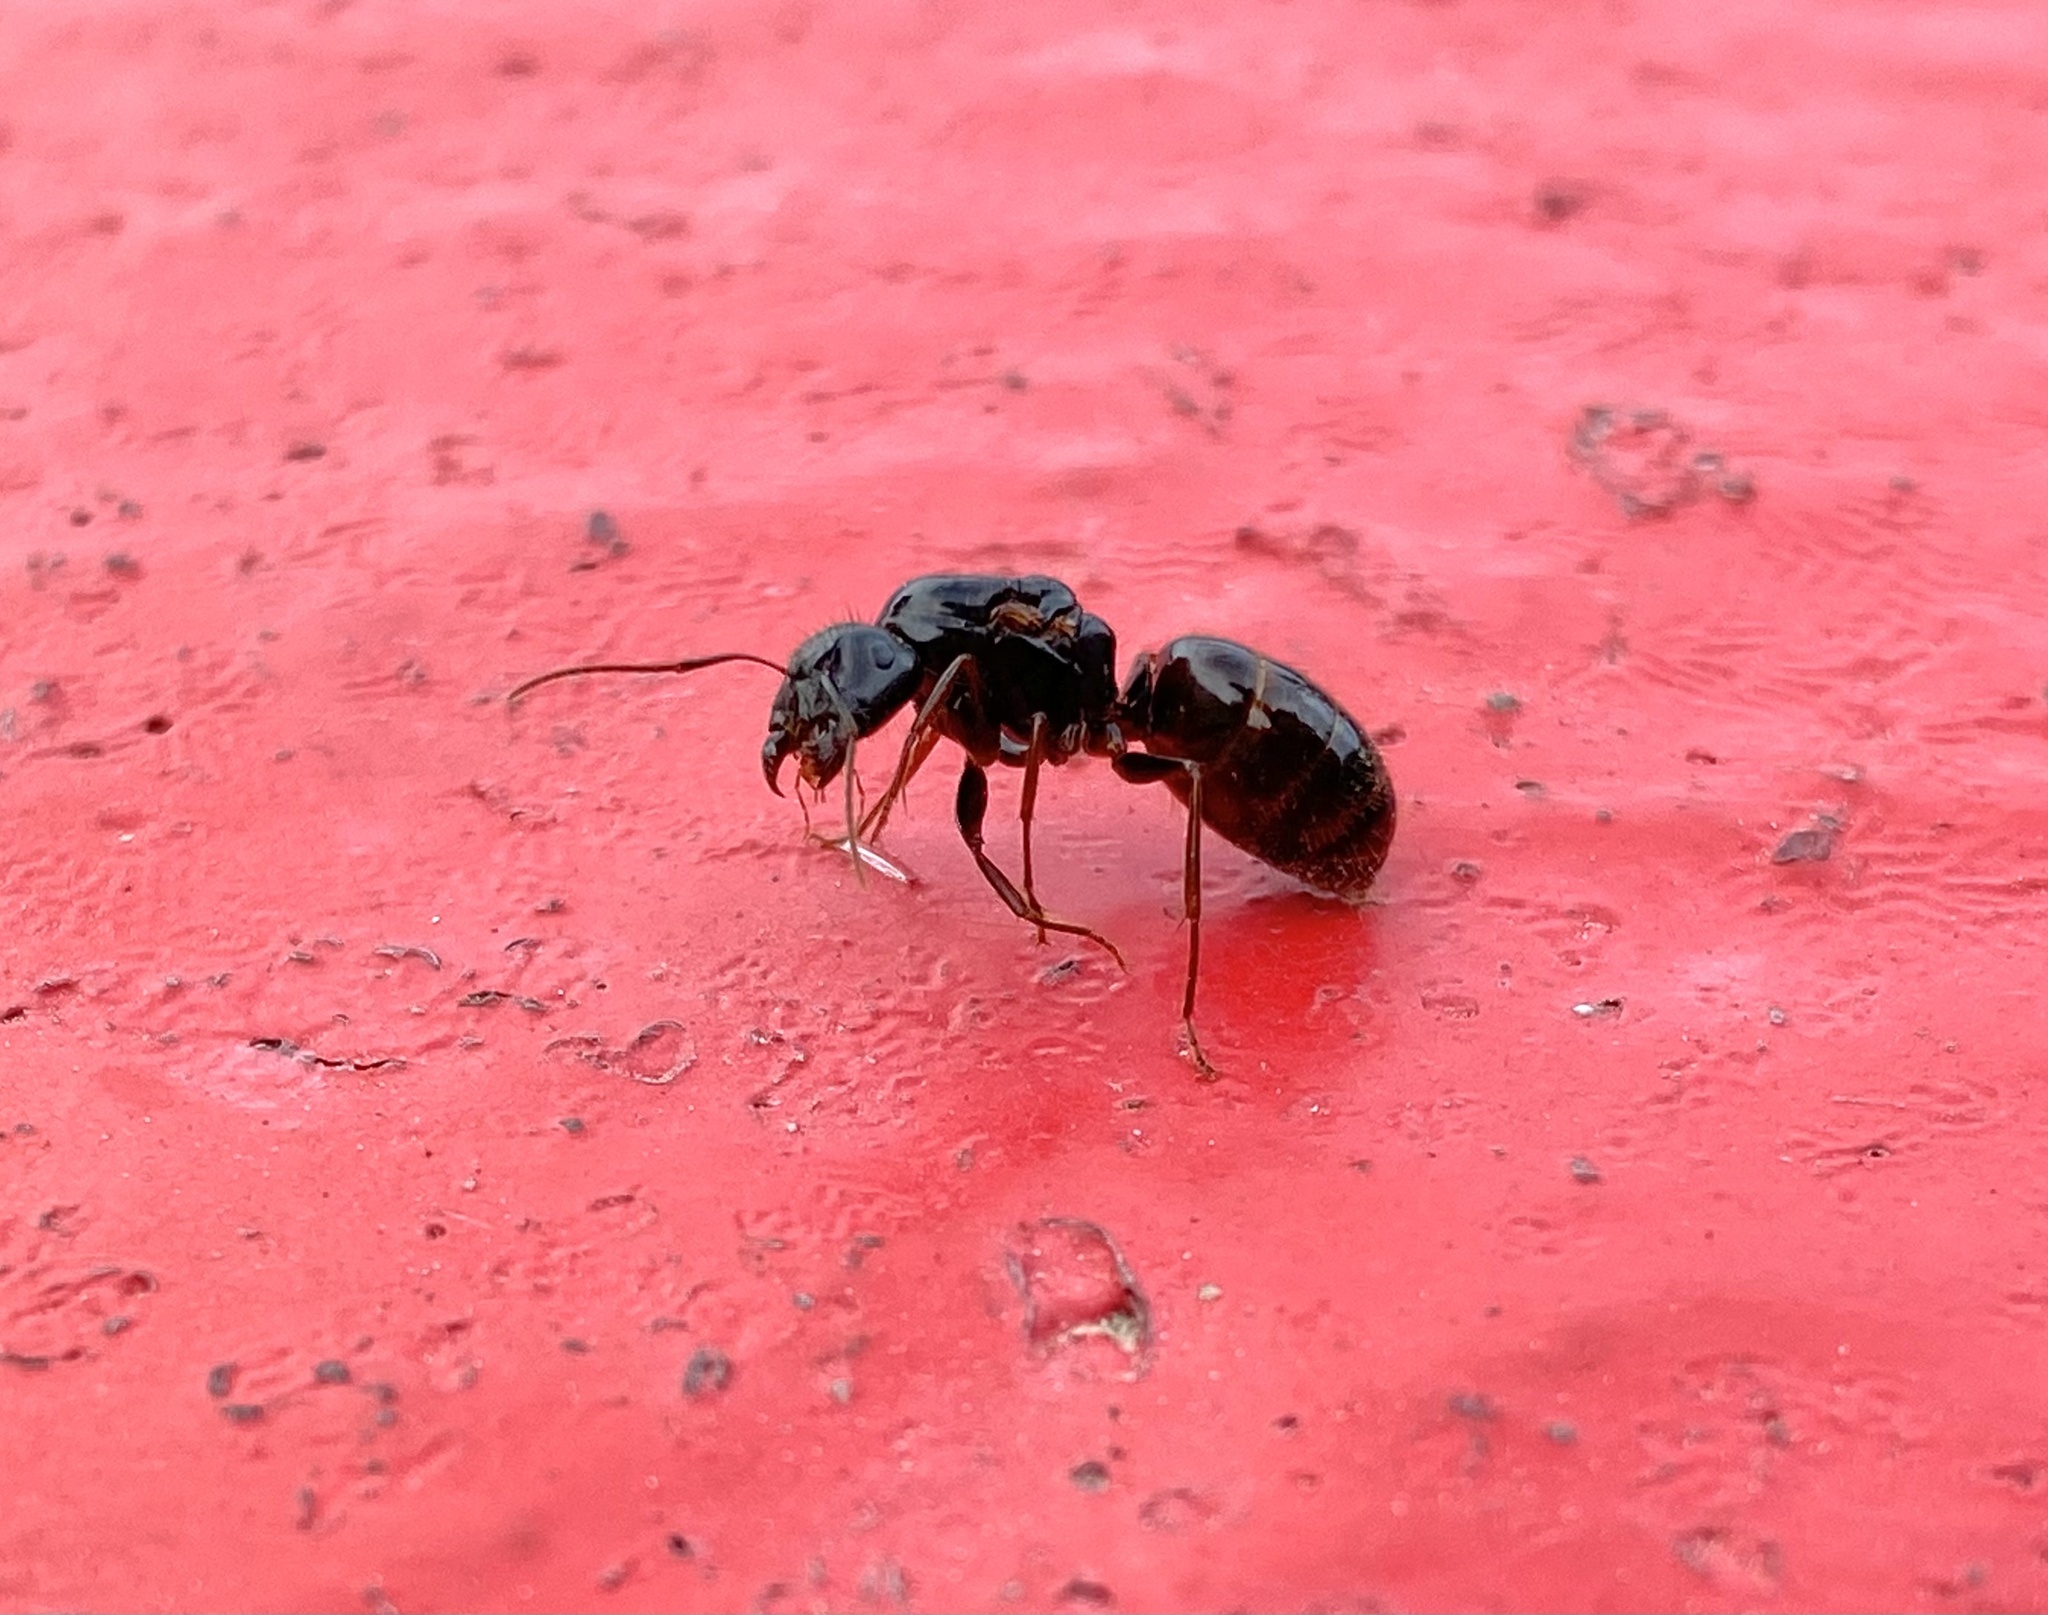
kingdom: Animalia
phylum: Arthropoda
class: Insecta
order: Hymenoptera
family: Formicidae
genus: Camponotus
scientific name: Camponotus sansabeanus
